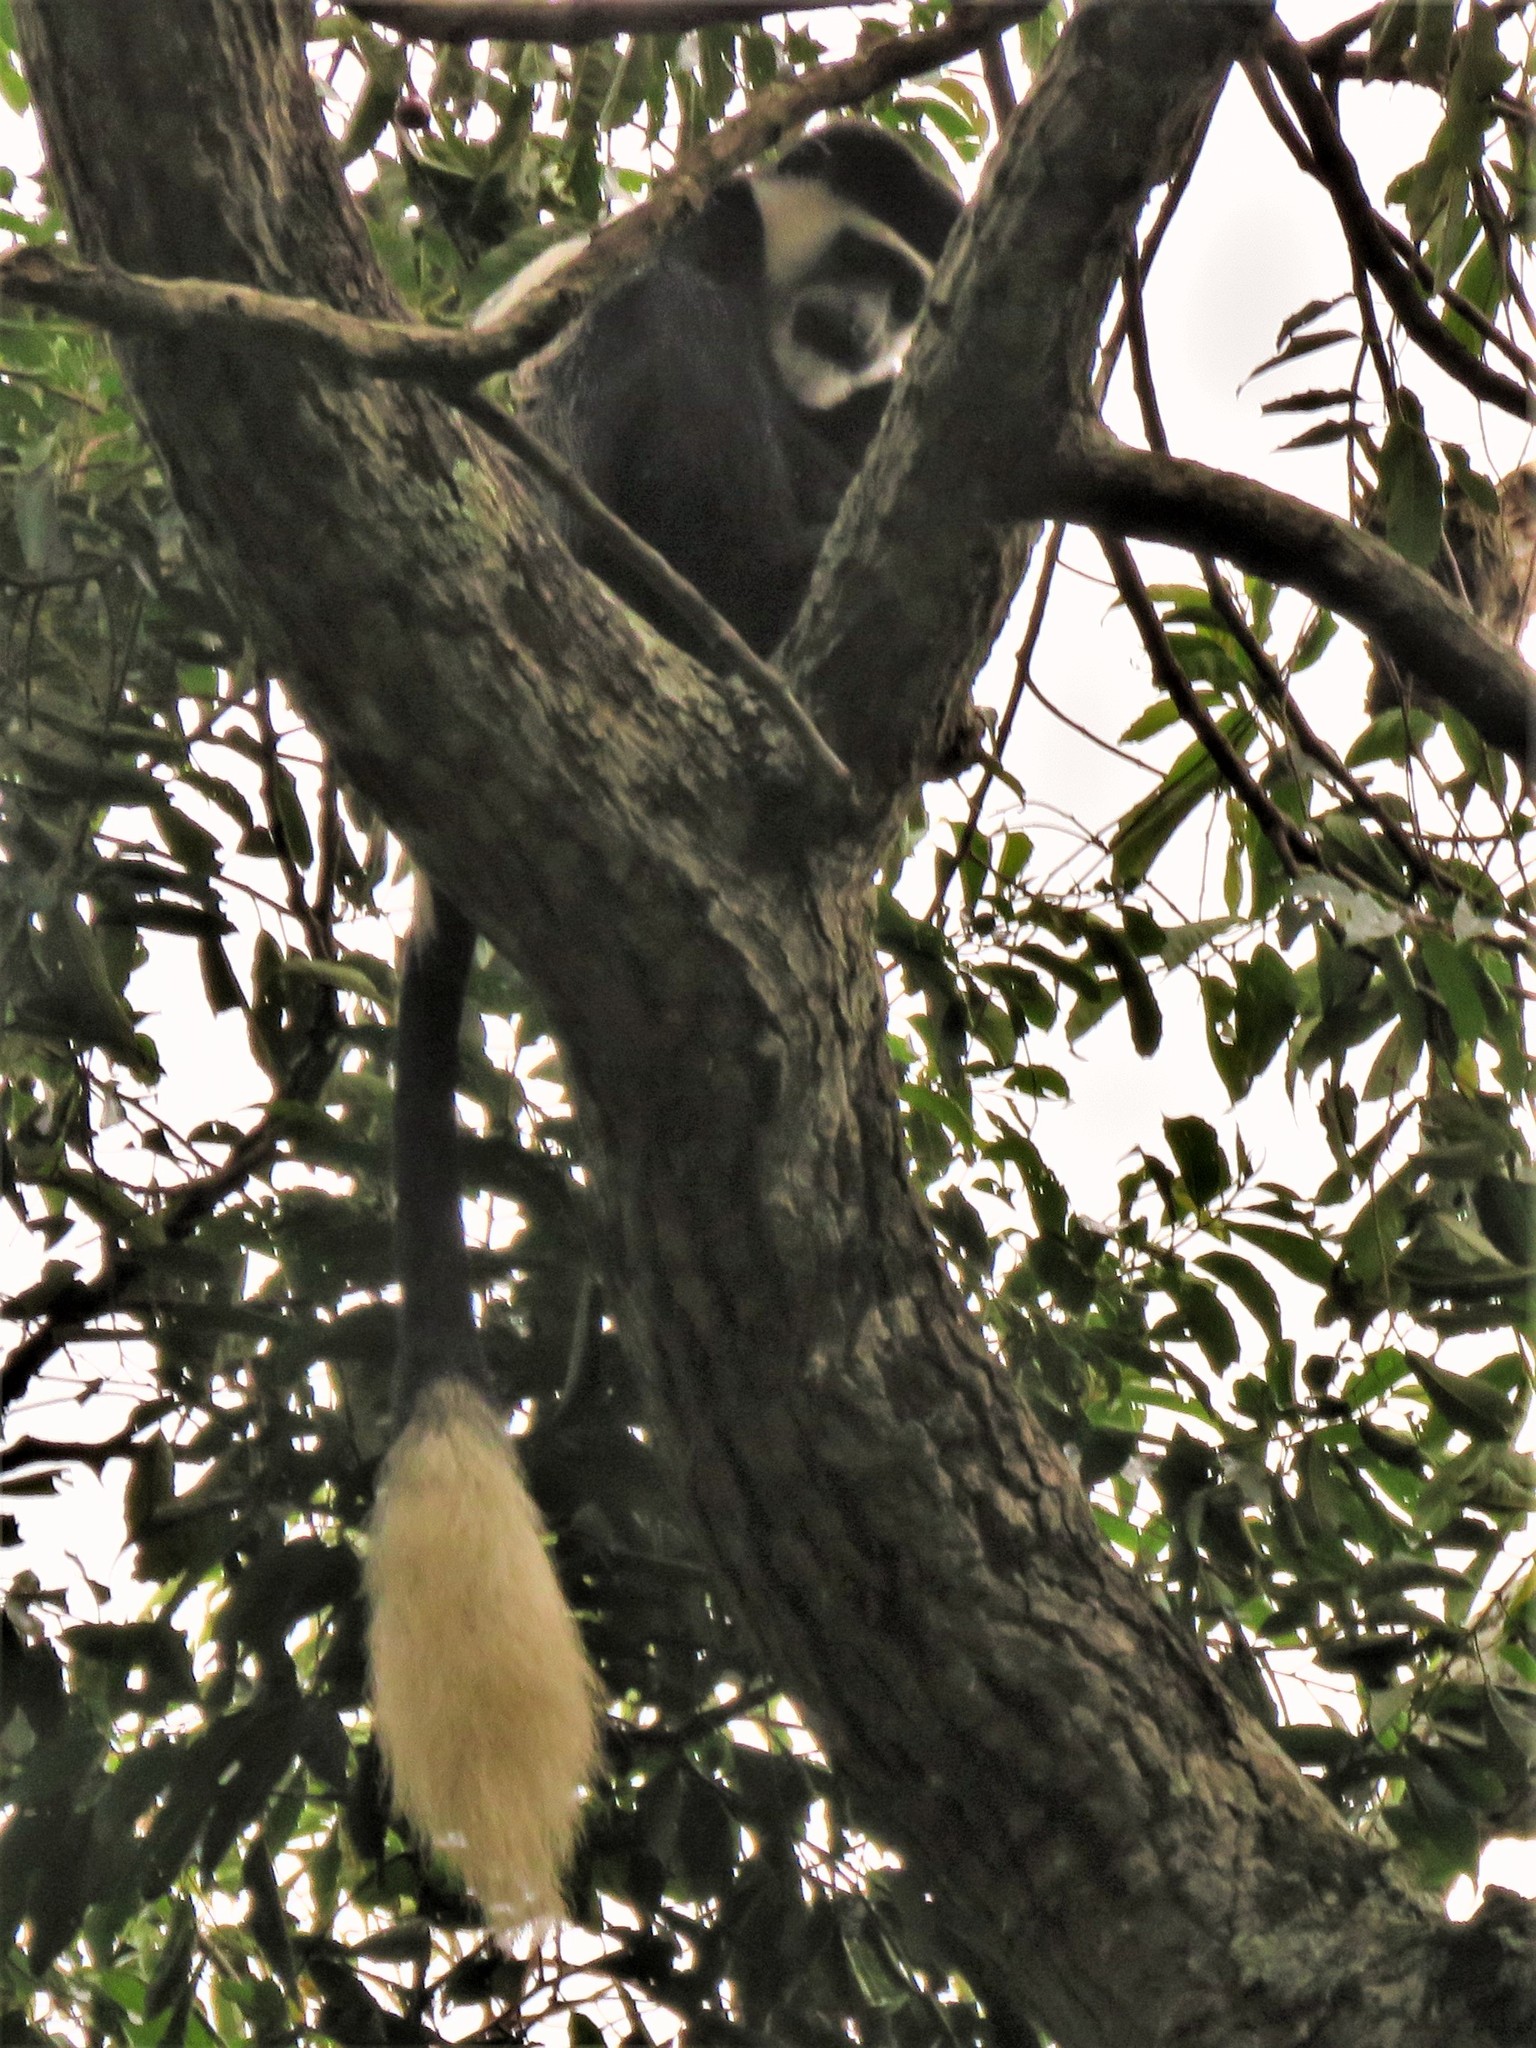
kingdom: Animalia
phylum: Chordata
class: Mammalia
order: Primates
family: Cercopithecidae
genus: Colobus
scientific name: Colobus guereza
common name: Mantled guereza
